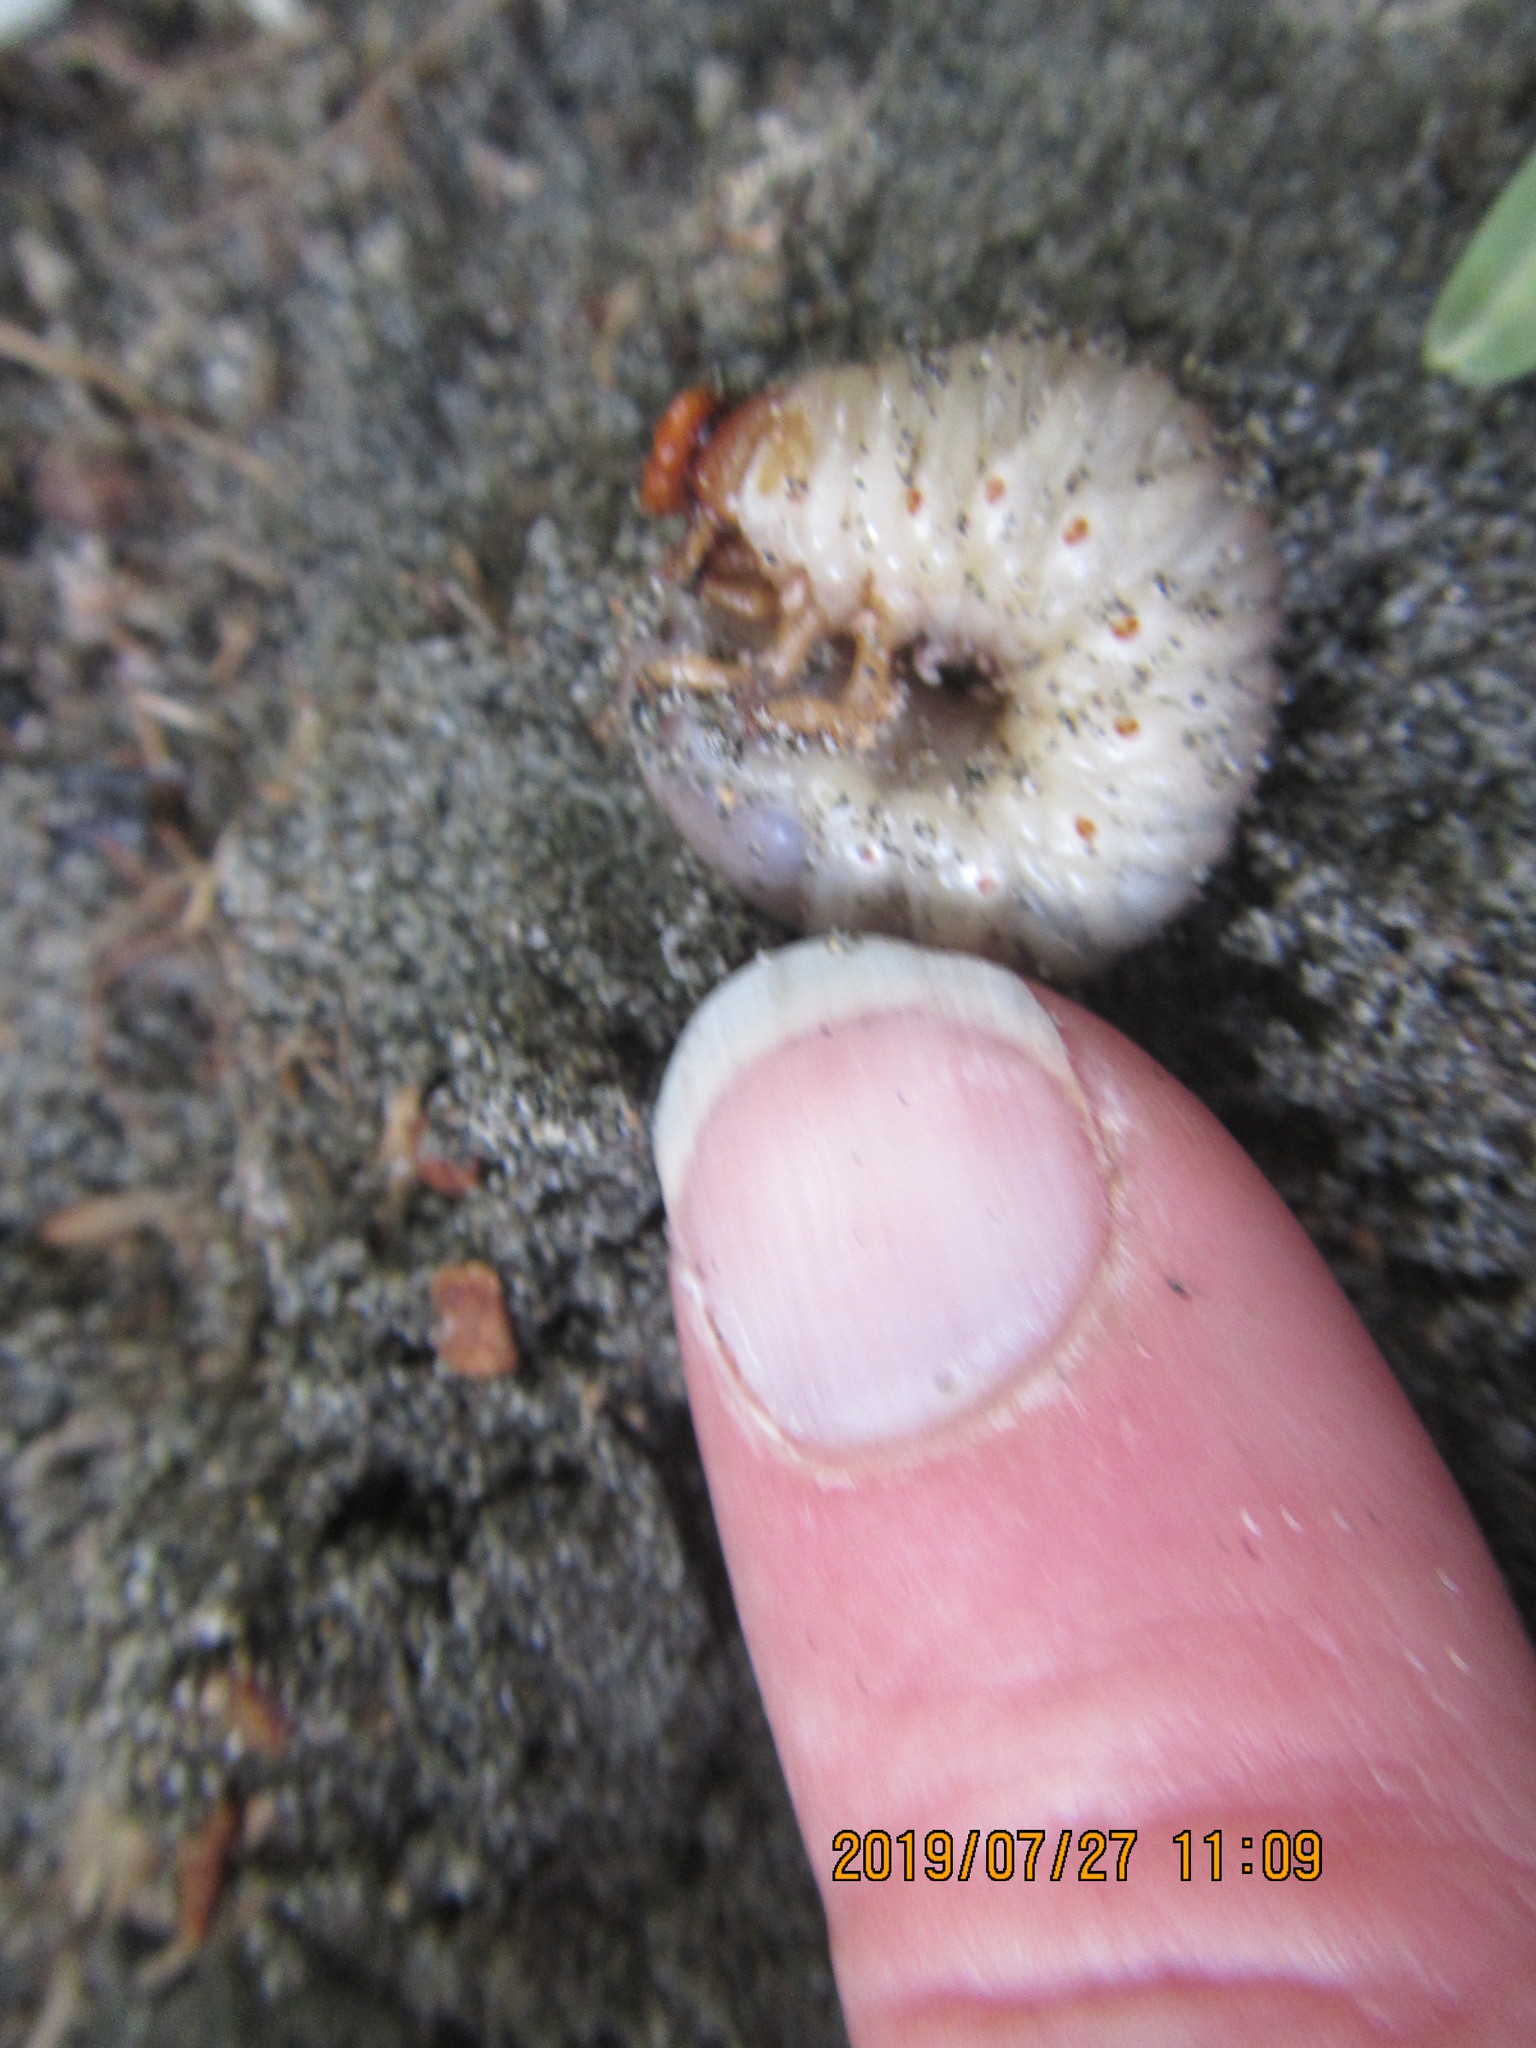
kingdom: Animalia
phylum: Arthropoda
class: Insecta
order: Coleoptera
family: Scarabaeidae
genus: Pericoptus
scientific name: Pericoptus truncatus
